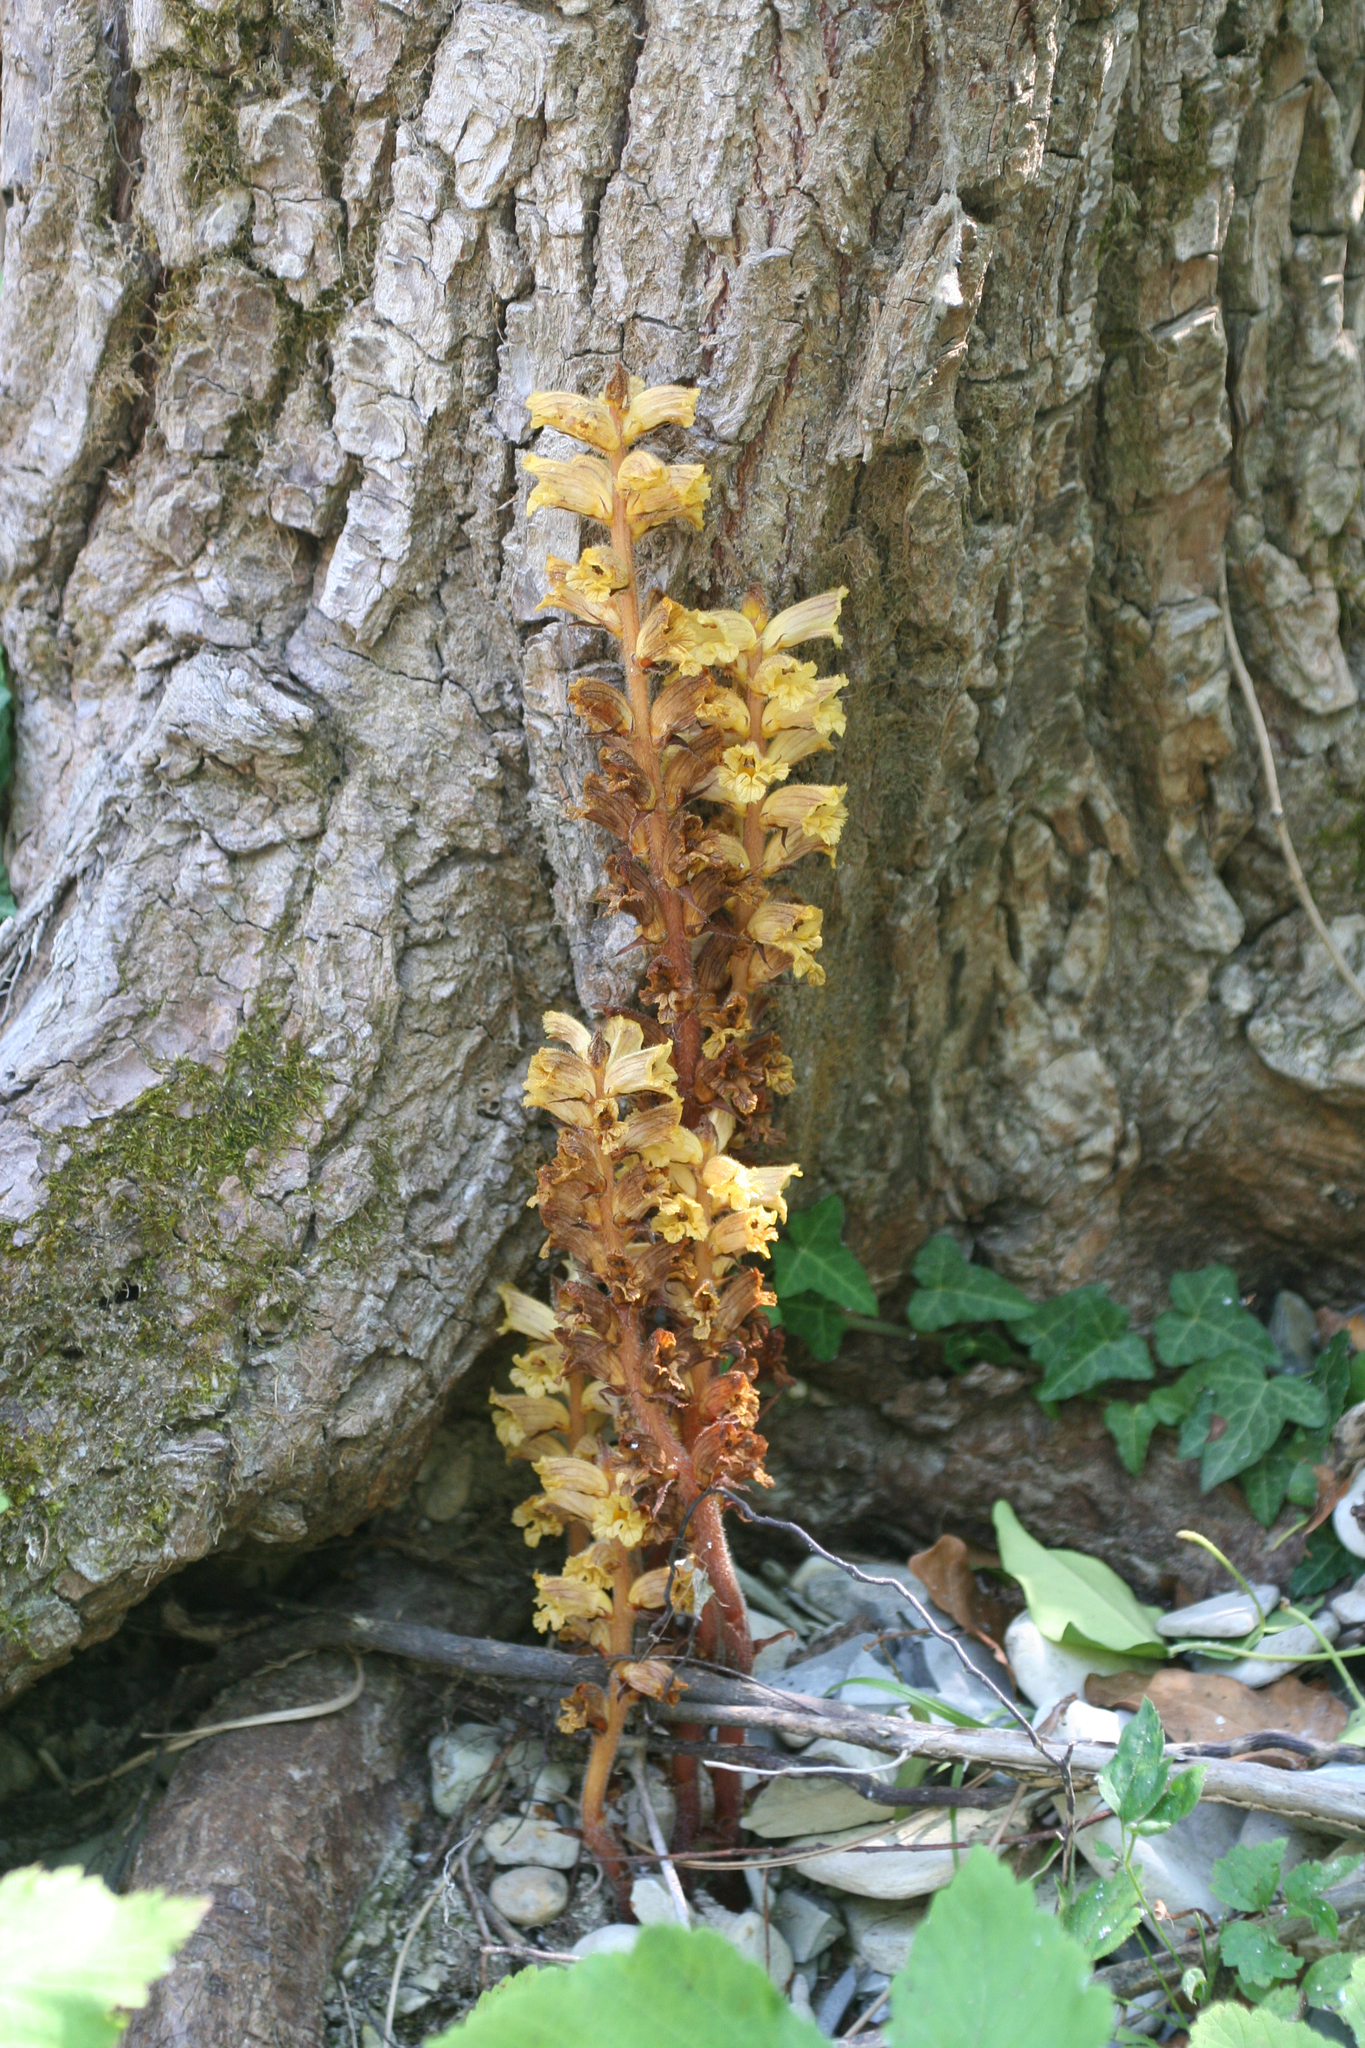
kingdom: Plantae
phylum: Tracheophyta
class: Magnoliopsida
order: Lamiales
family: Orobanchaceae
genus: Orobanche
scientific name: Orobanche laxissima
